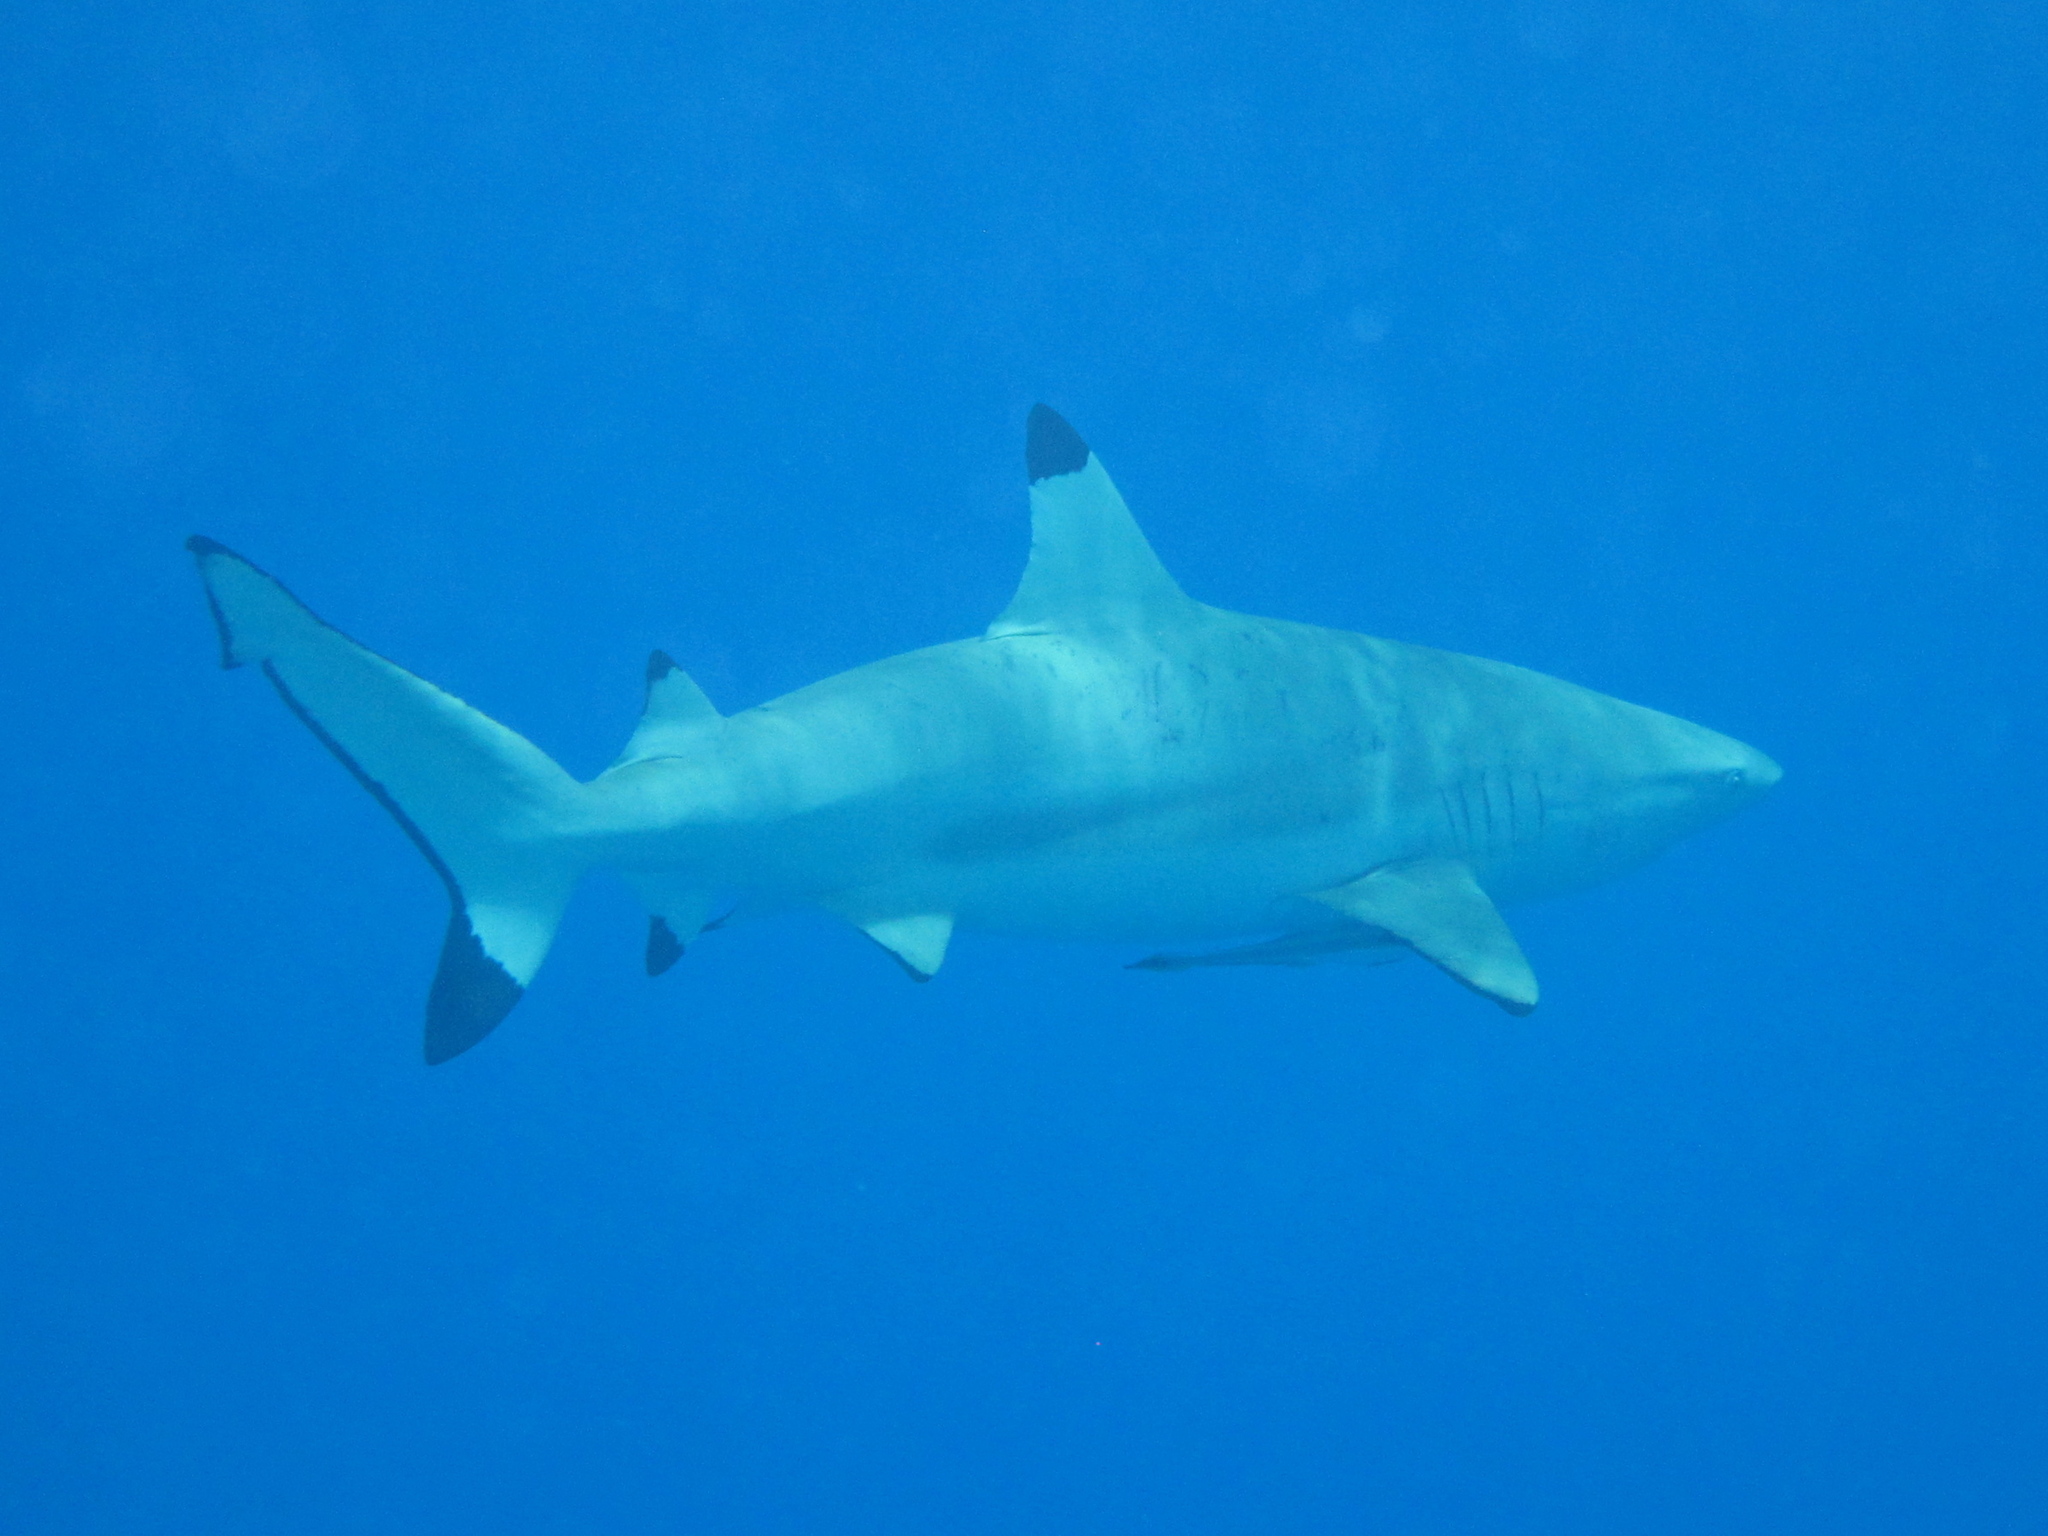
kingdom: Animalia
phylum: Chordata
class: Elasmobranchii
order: Carcharhiniformes
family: Carcharhinidae
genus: Carcharhinus
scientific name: Carcharhinus melanopterus
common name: Blacktip reef shark
